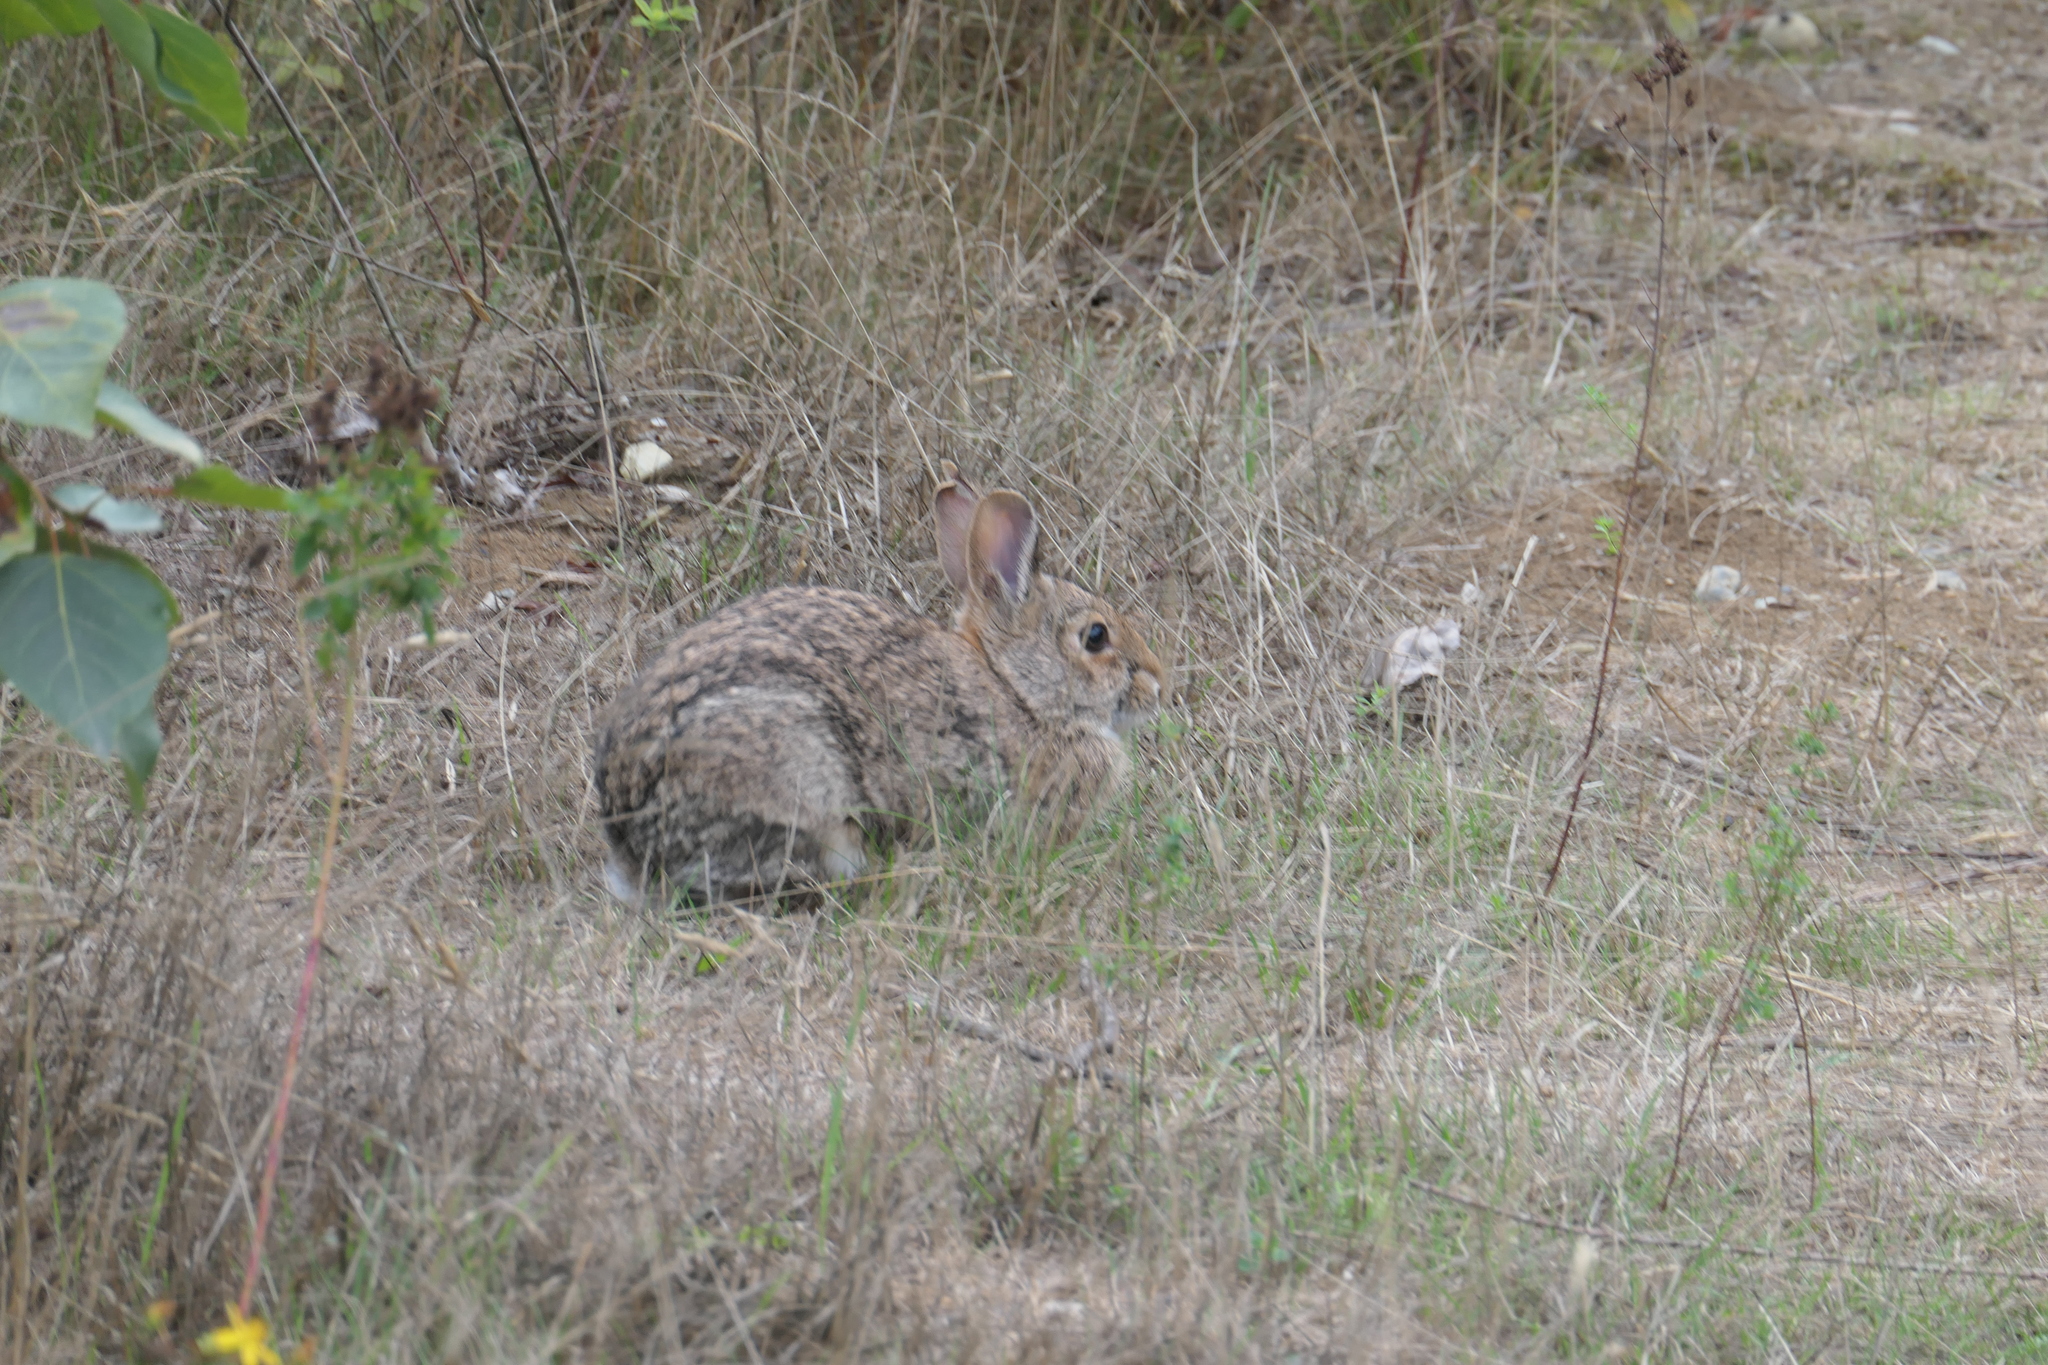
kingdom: Animalia
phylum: Chordata
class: Mammalia
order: Lagomorpha
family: Leporidae
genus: Sylvilagus
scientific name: Sylvilagus floridanus
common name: Eastern cottontail
